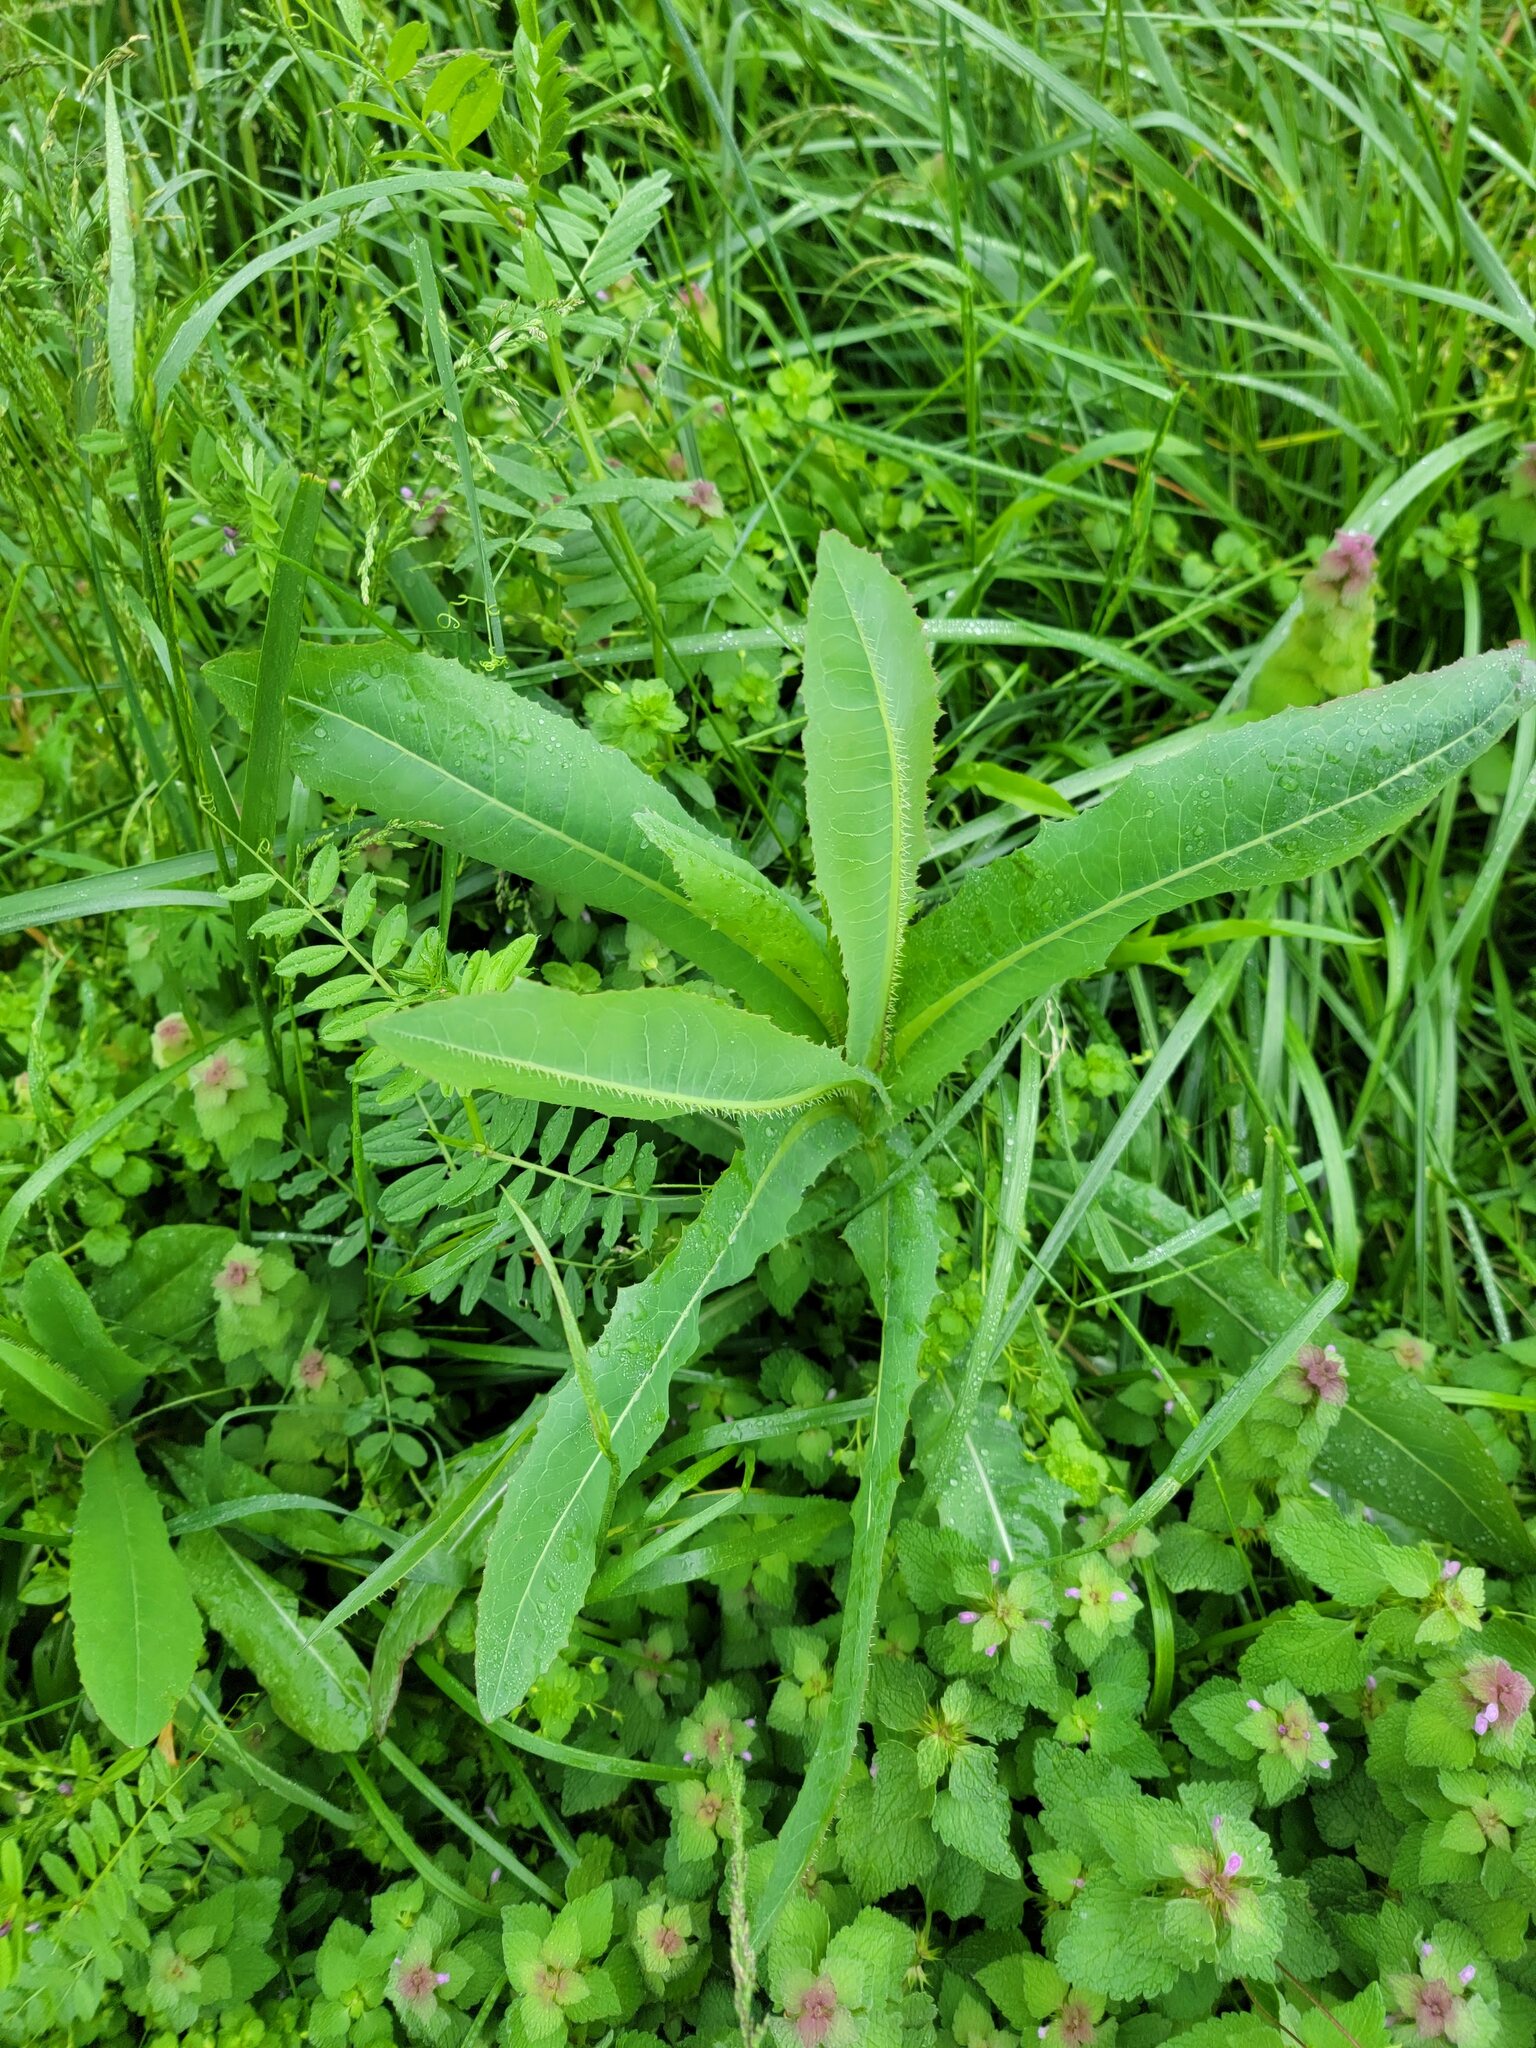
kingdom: Plantae
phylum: Tracheophyta
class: Magnoliopsida
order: Asterales
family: Asteraceae
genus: Lactuca
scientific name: Lactuca serriola
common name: Prickly lettuce
